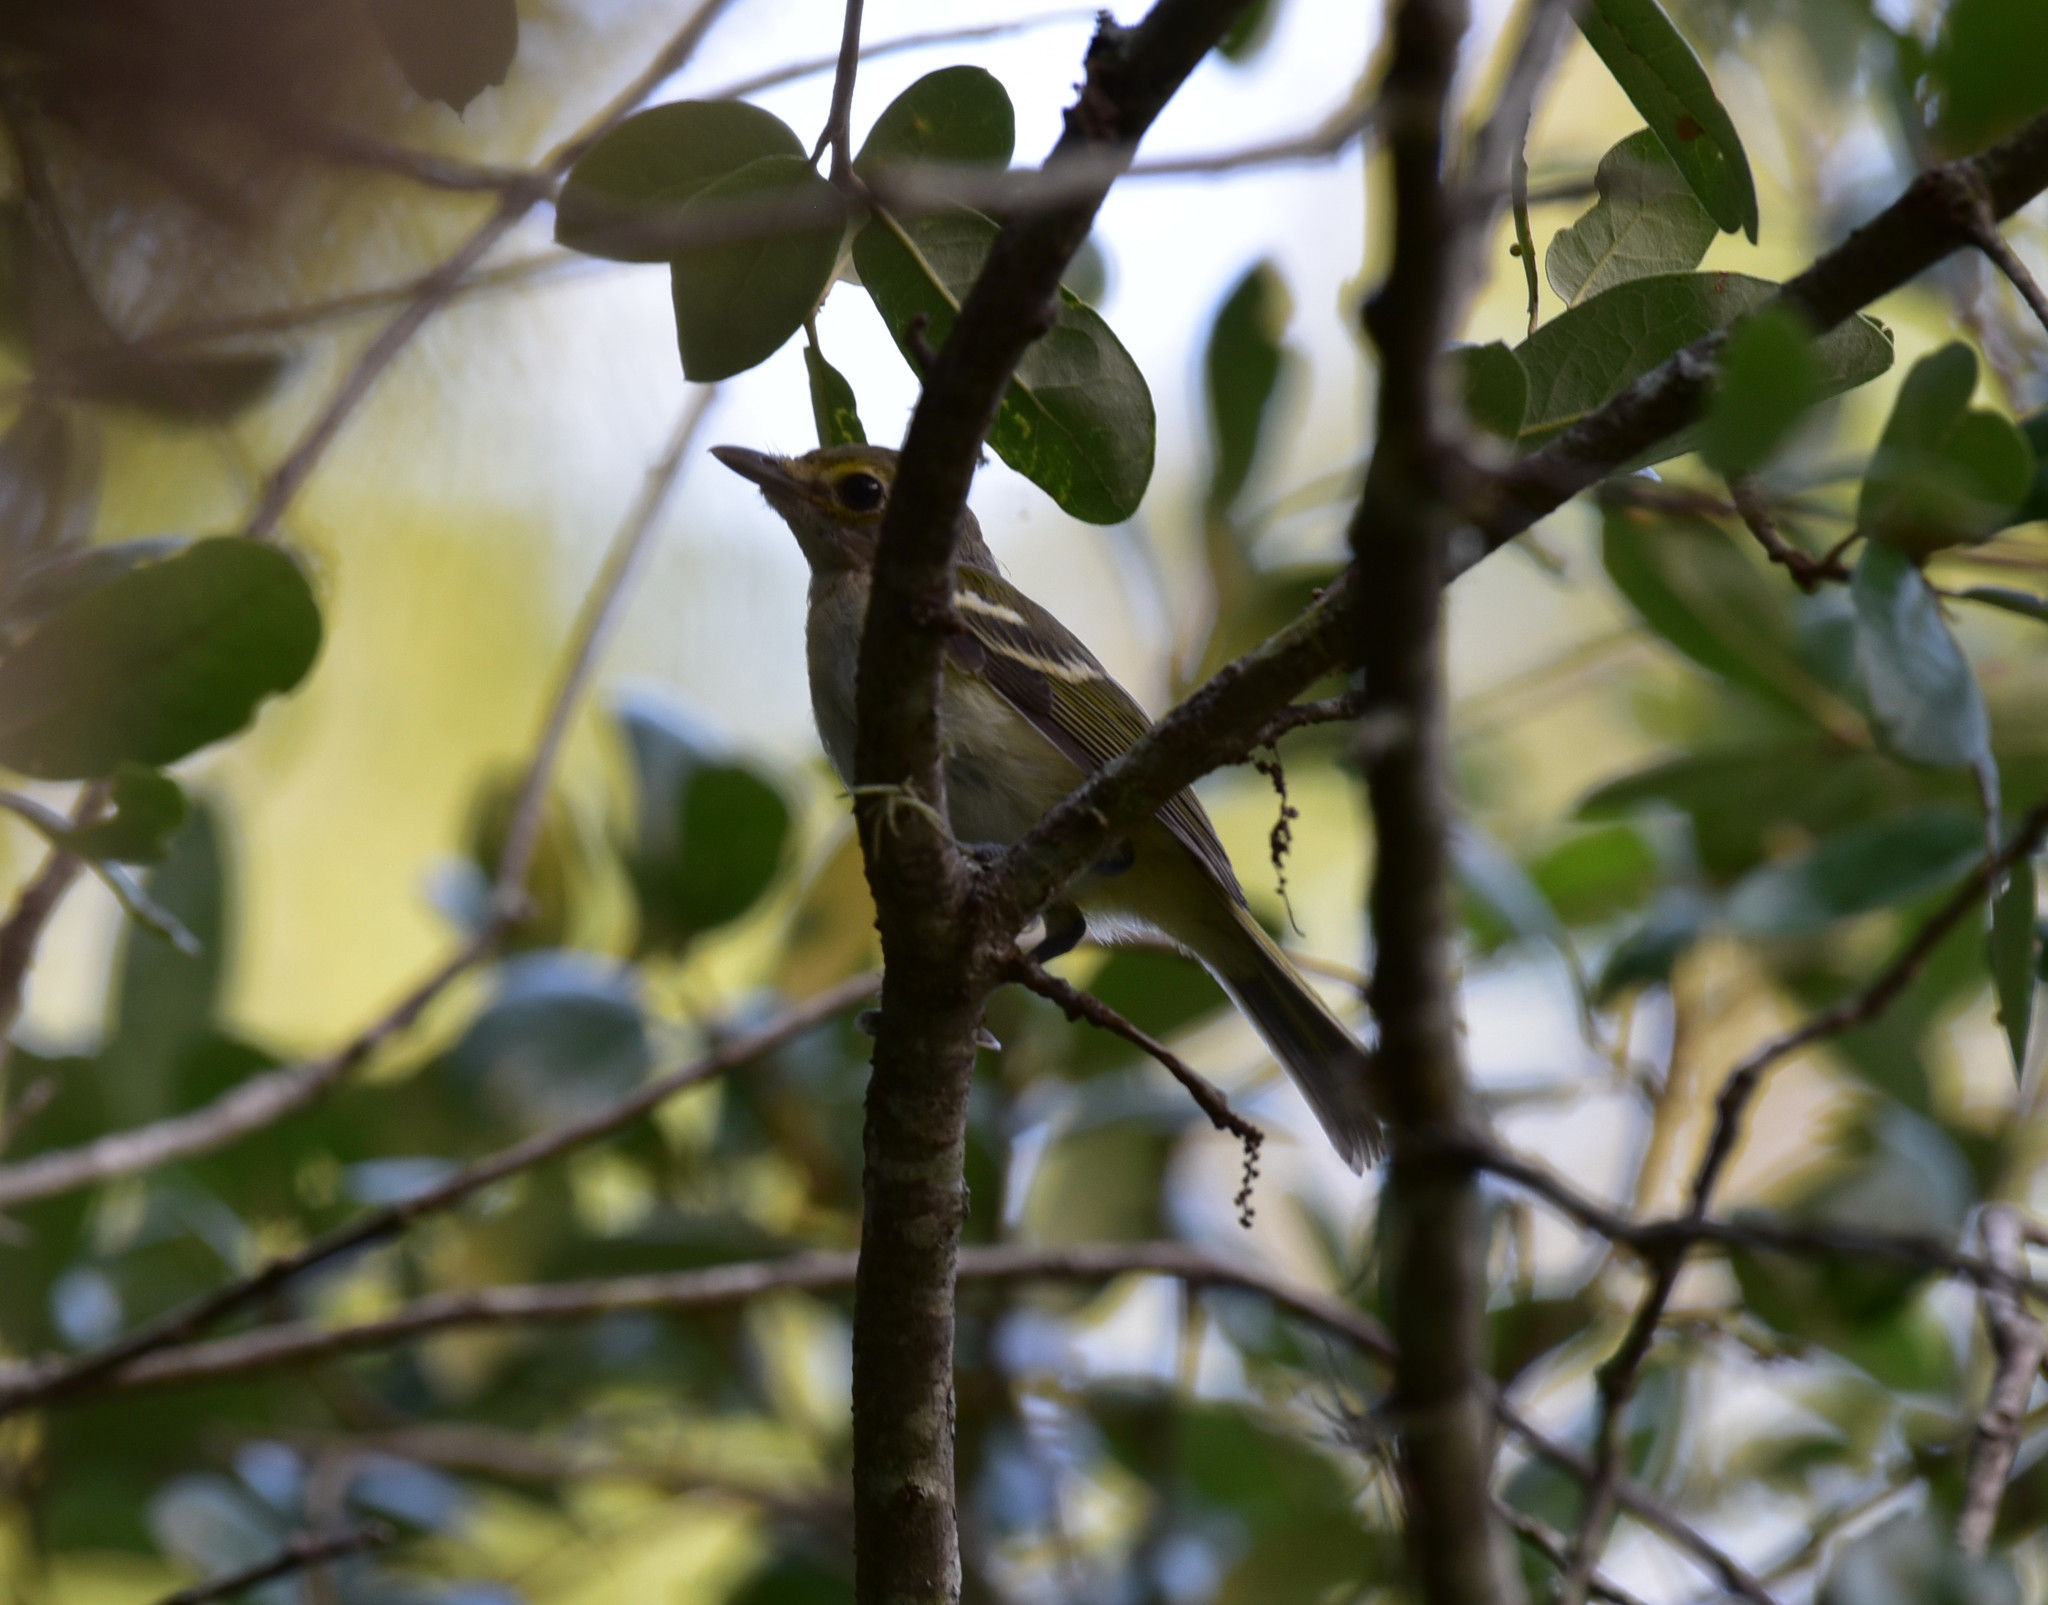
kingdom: Animalia
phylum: Chordata
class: Aves
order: Passeriformes
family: Vireonidae
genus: Vireo
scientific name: Vireo griseus
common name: White-eyed vireo
